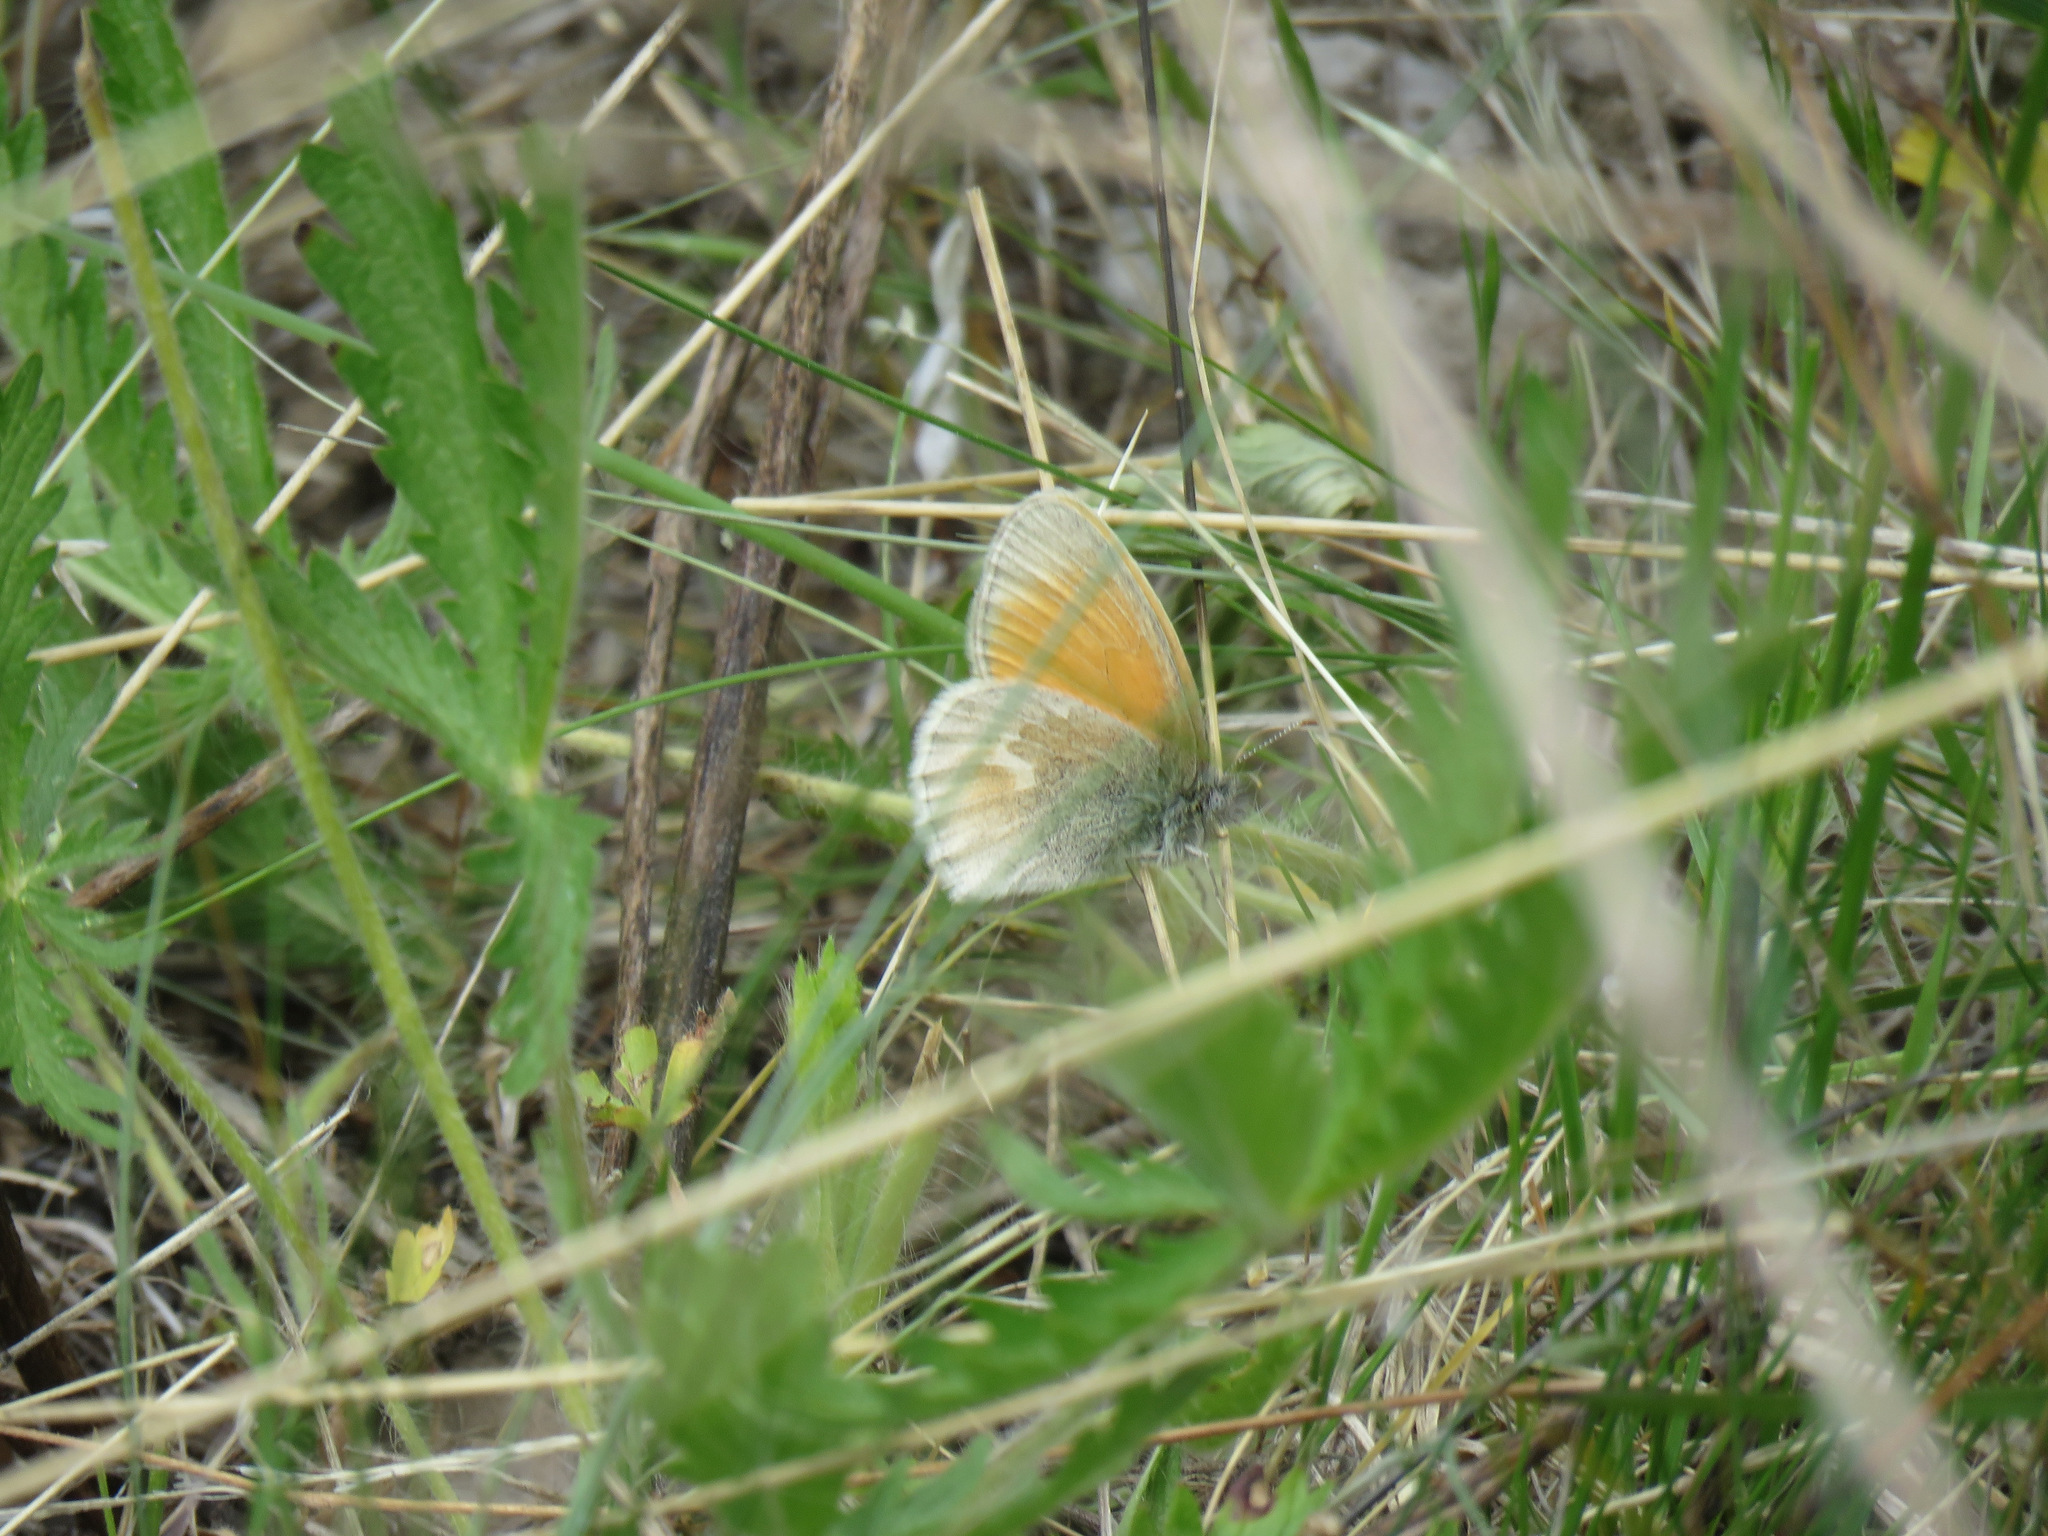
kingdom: Animalia
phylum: Arthropoda
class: Insecta
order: Lepidoptera
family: Nymphalidae
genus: Coenonympha
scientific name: Coenonympha california
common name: Common ringlet
